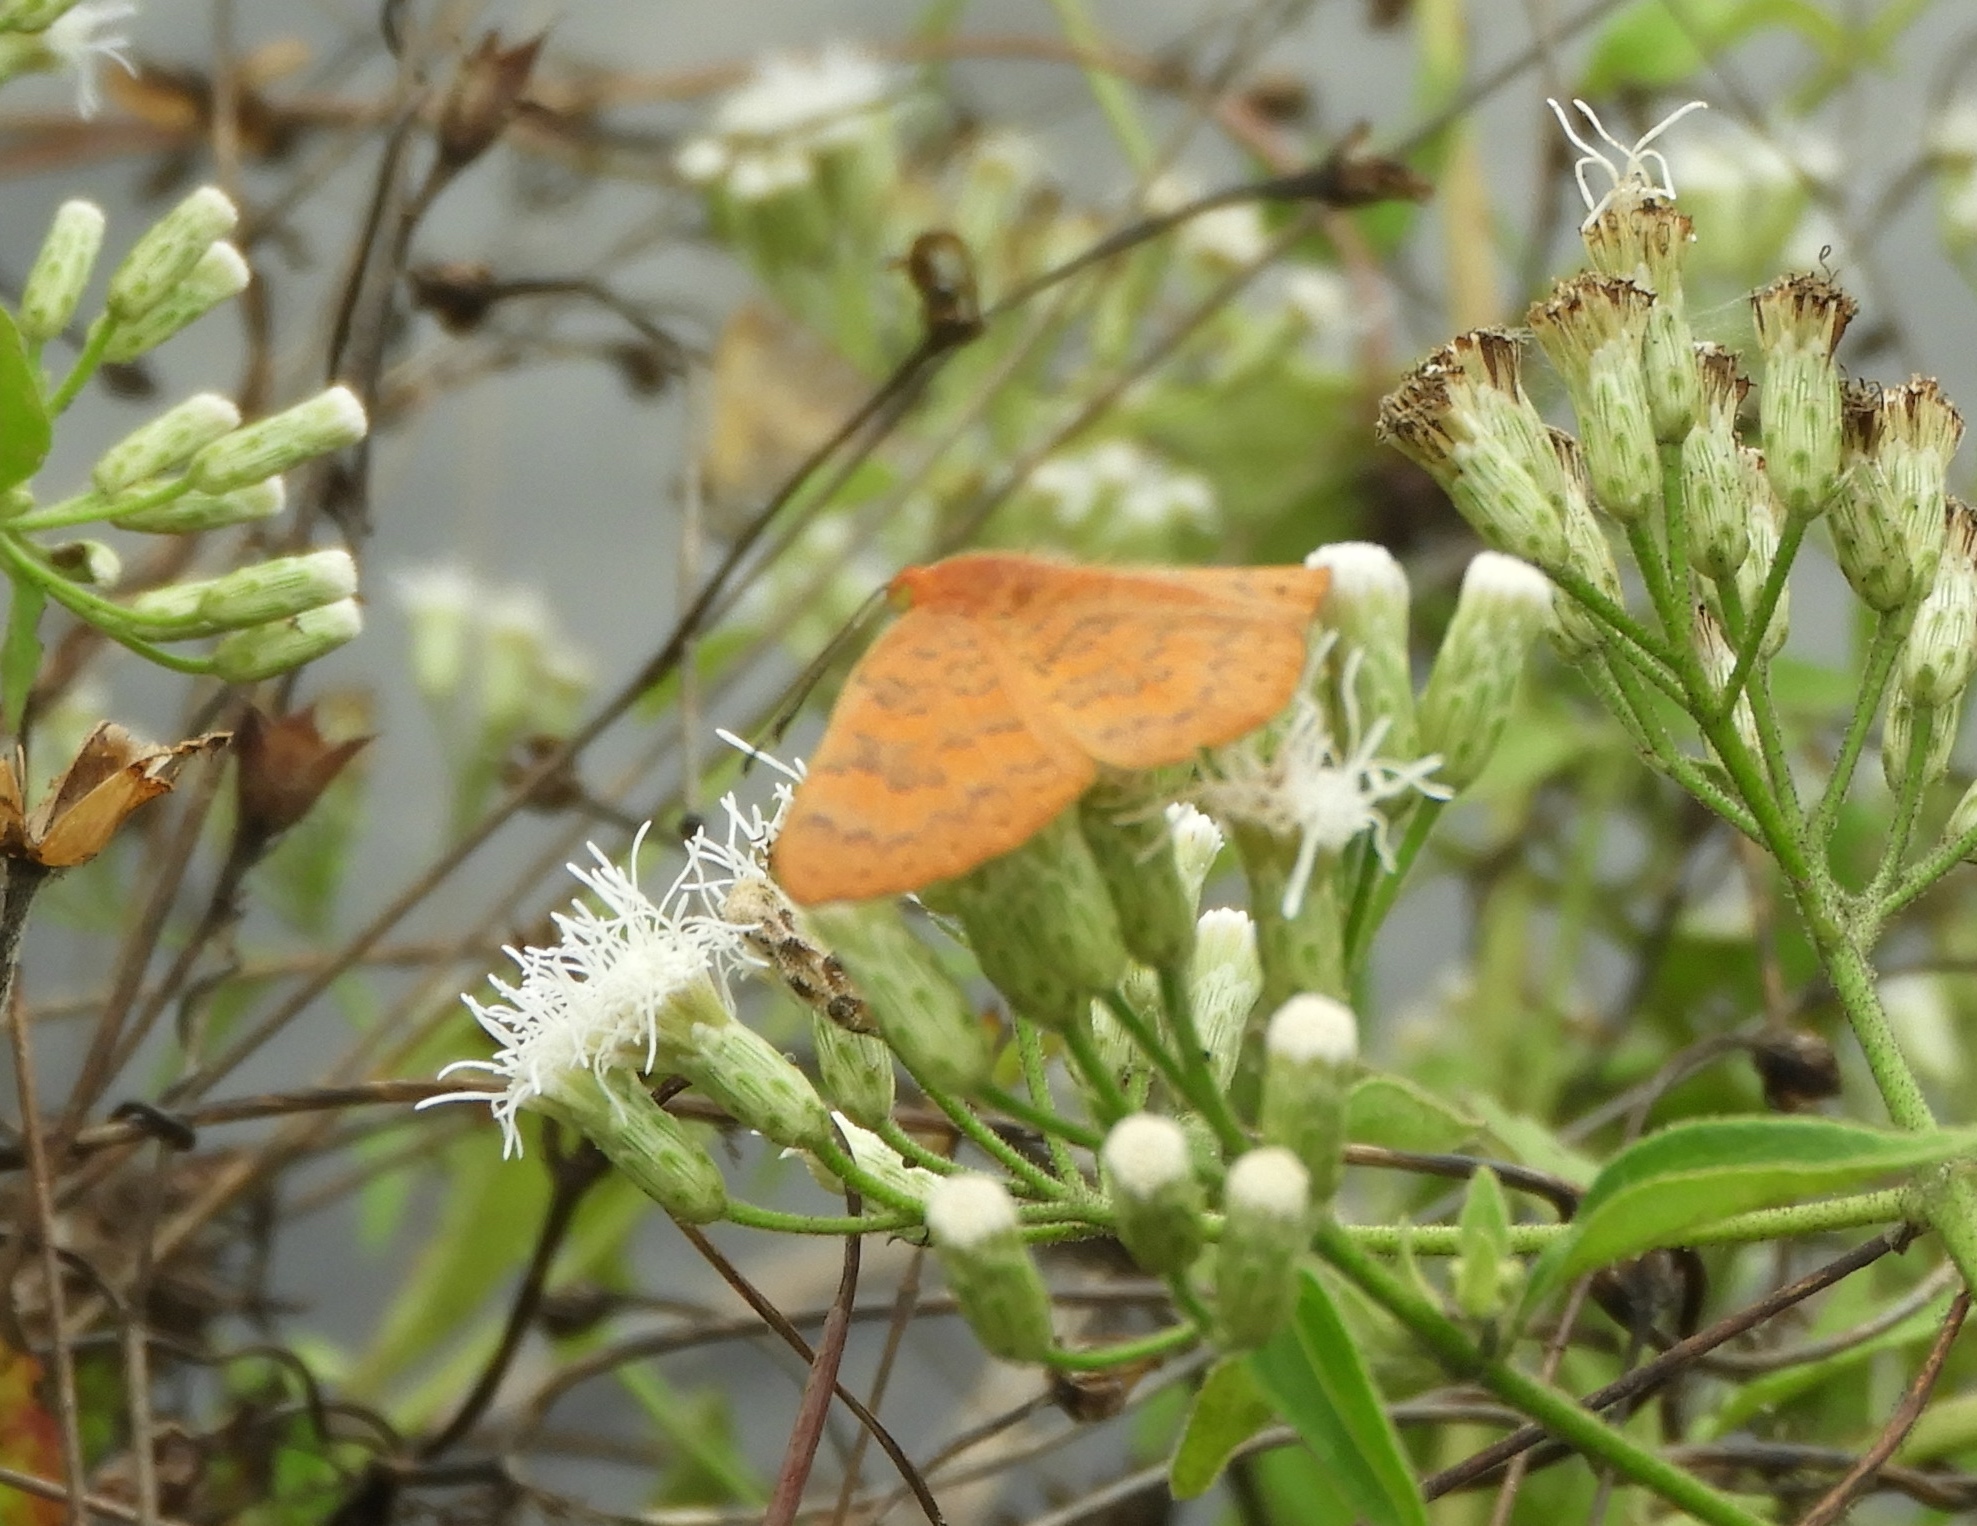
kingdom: Animalia
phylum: Arthropoda
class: Insecta
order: Lepidoptera
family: Lycaenidae
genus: Emesis
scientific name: Emesis mandana
